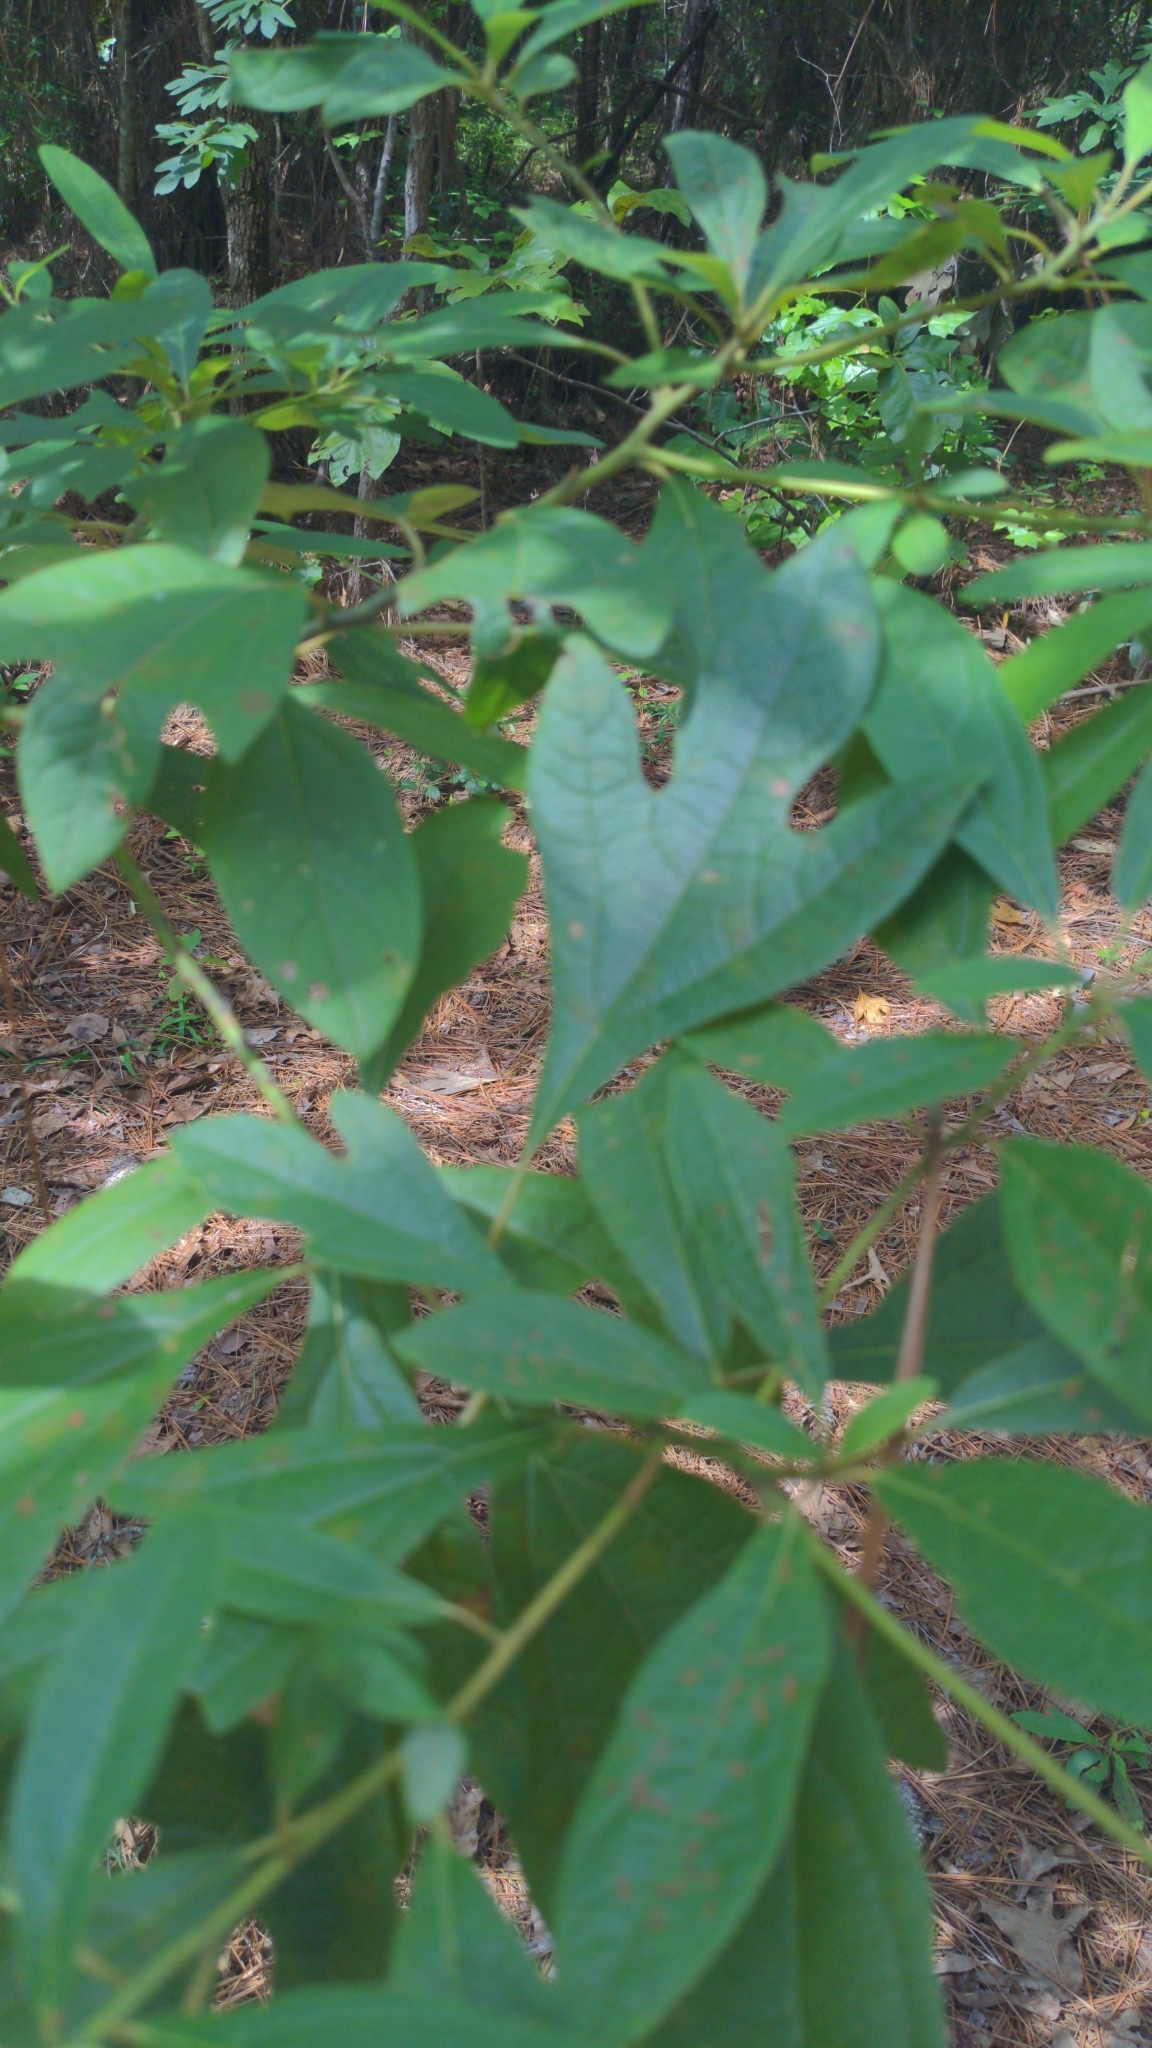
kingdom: Plantae
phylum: Tracheophyta
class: Magnoliopsida
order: Laurales
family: Lauraceae
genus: Sassafras
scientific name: Sassafras albidum
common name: Sassafras
